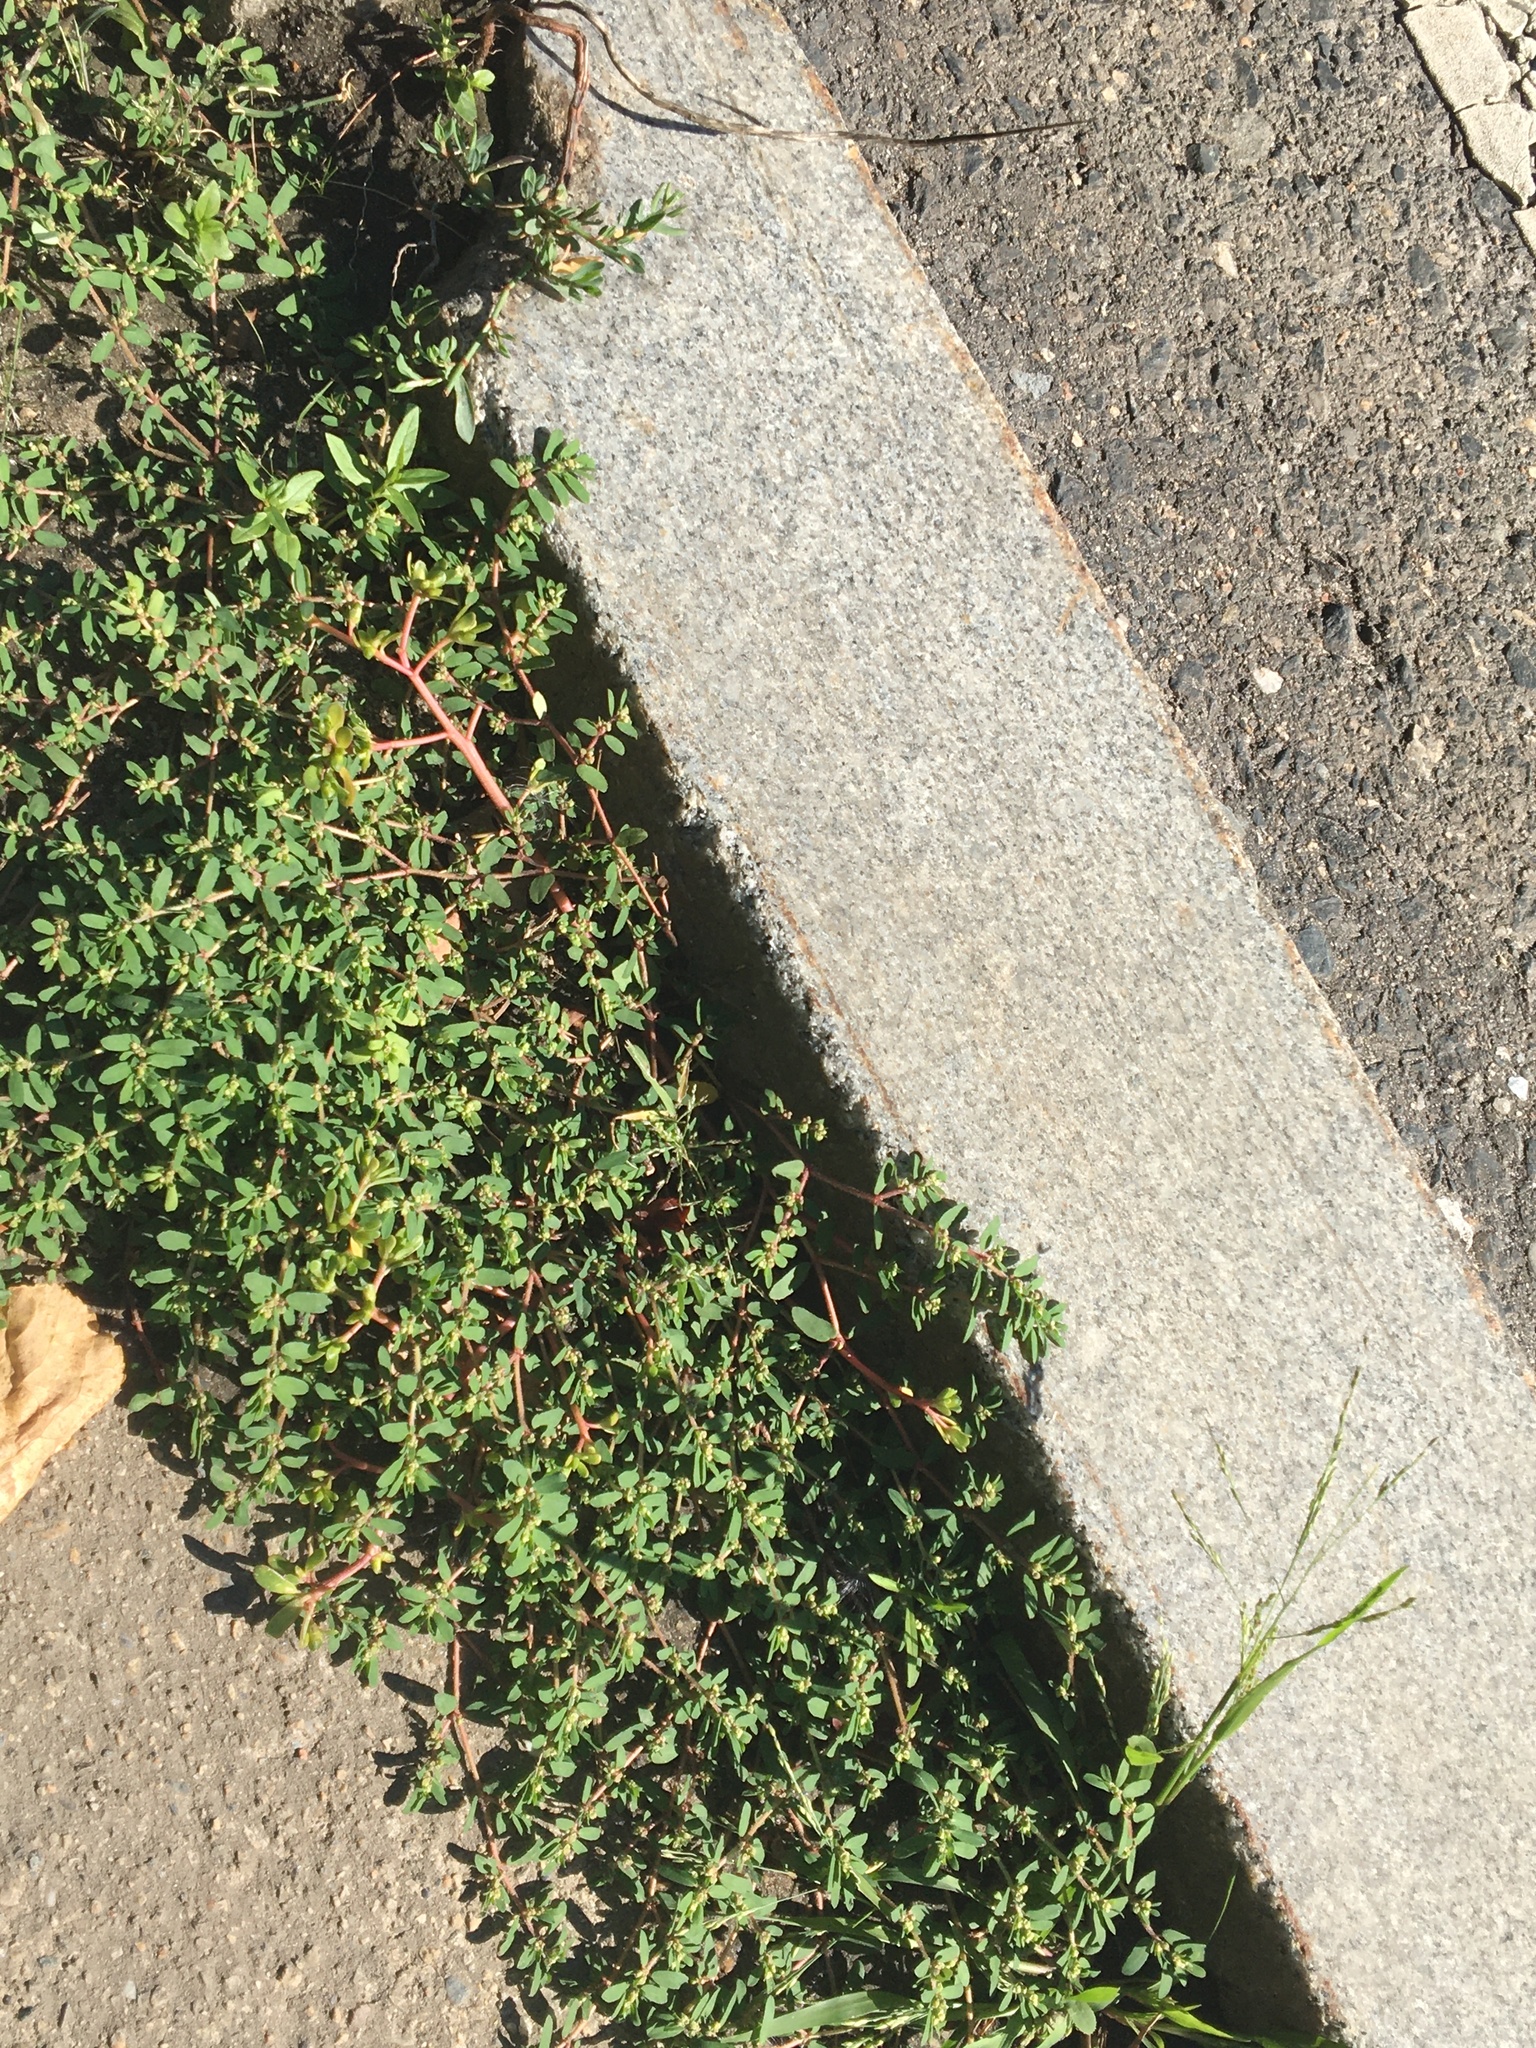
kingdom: Plantae
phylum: Tracheophyta
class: Magnoliopsida
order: Malpighiales
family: Euphorbiaceae
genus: Euphorbia
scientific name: Euphorbia maculata
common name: Spotted spurge
